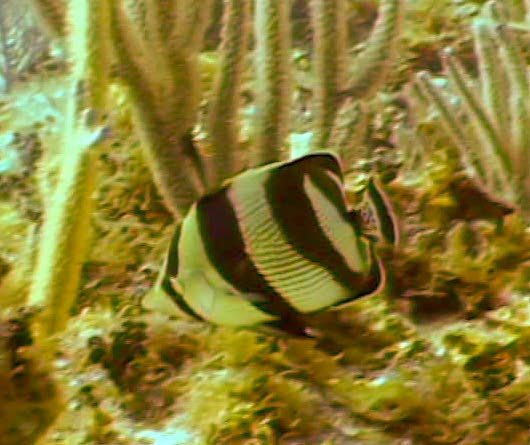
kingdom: Animalia
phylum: Chordata
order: Perciformes
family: Chaetodontidae
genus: Chaetodon
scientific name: Chaetodon striatus
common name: Banded butterflyfish
